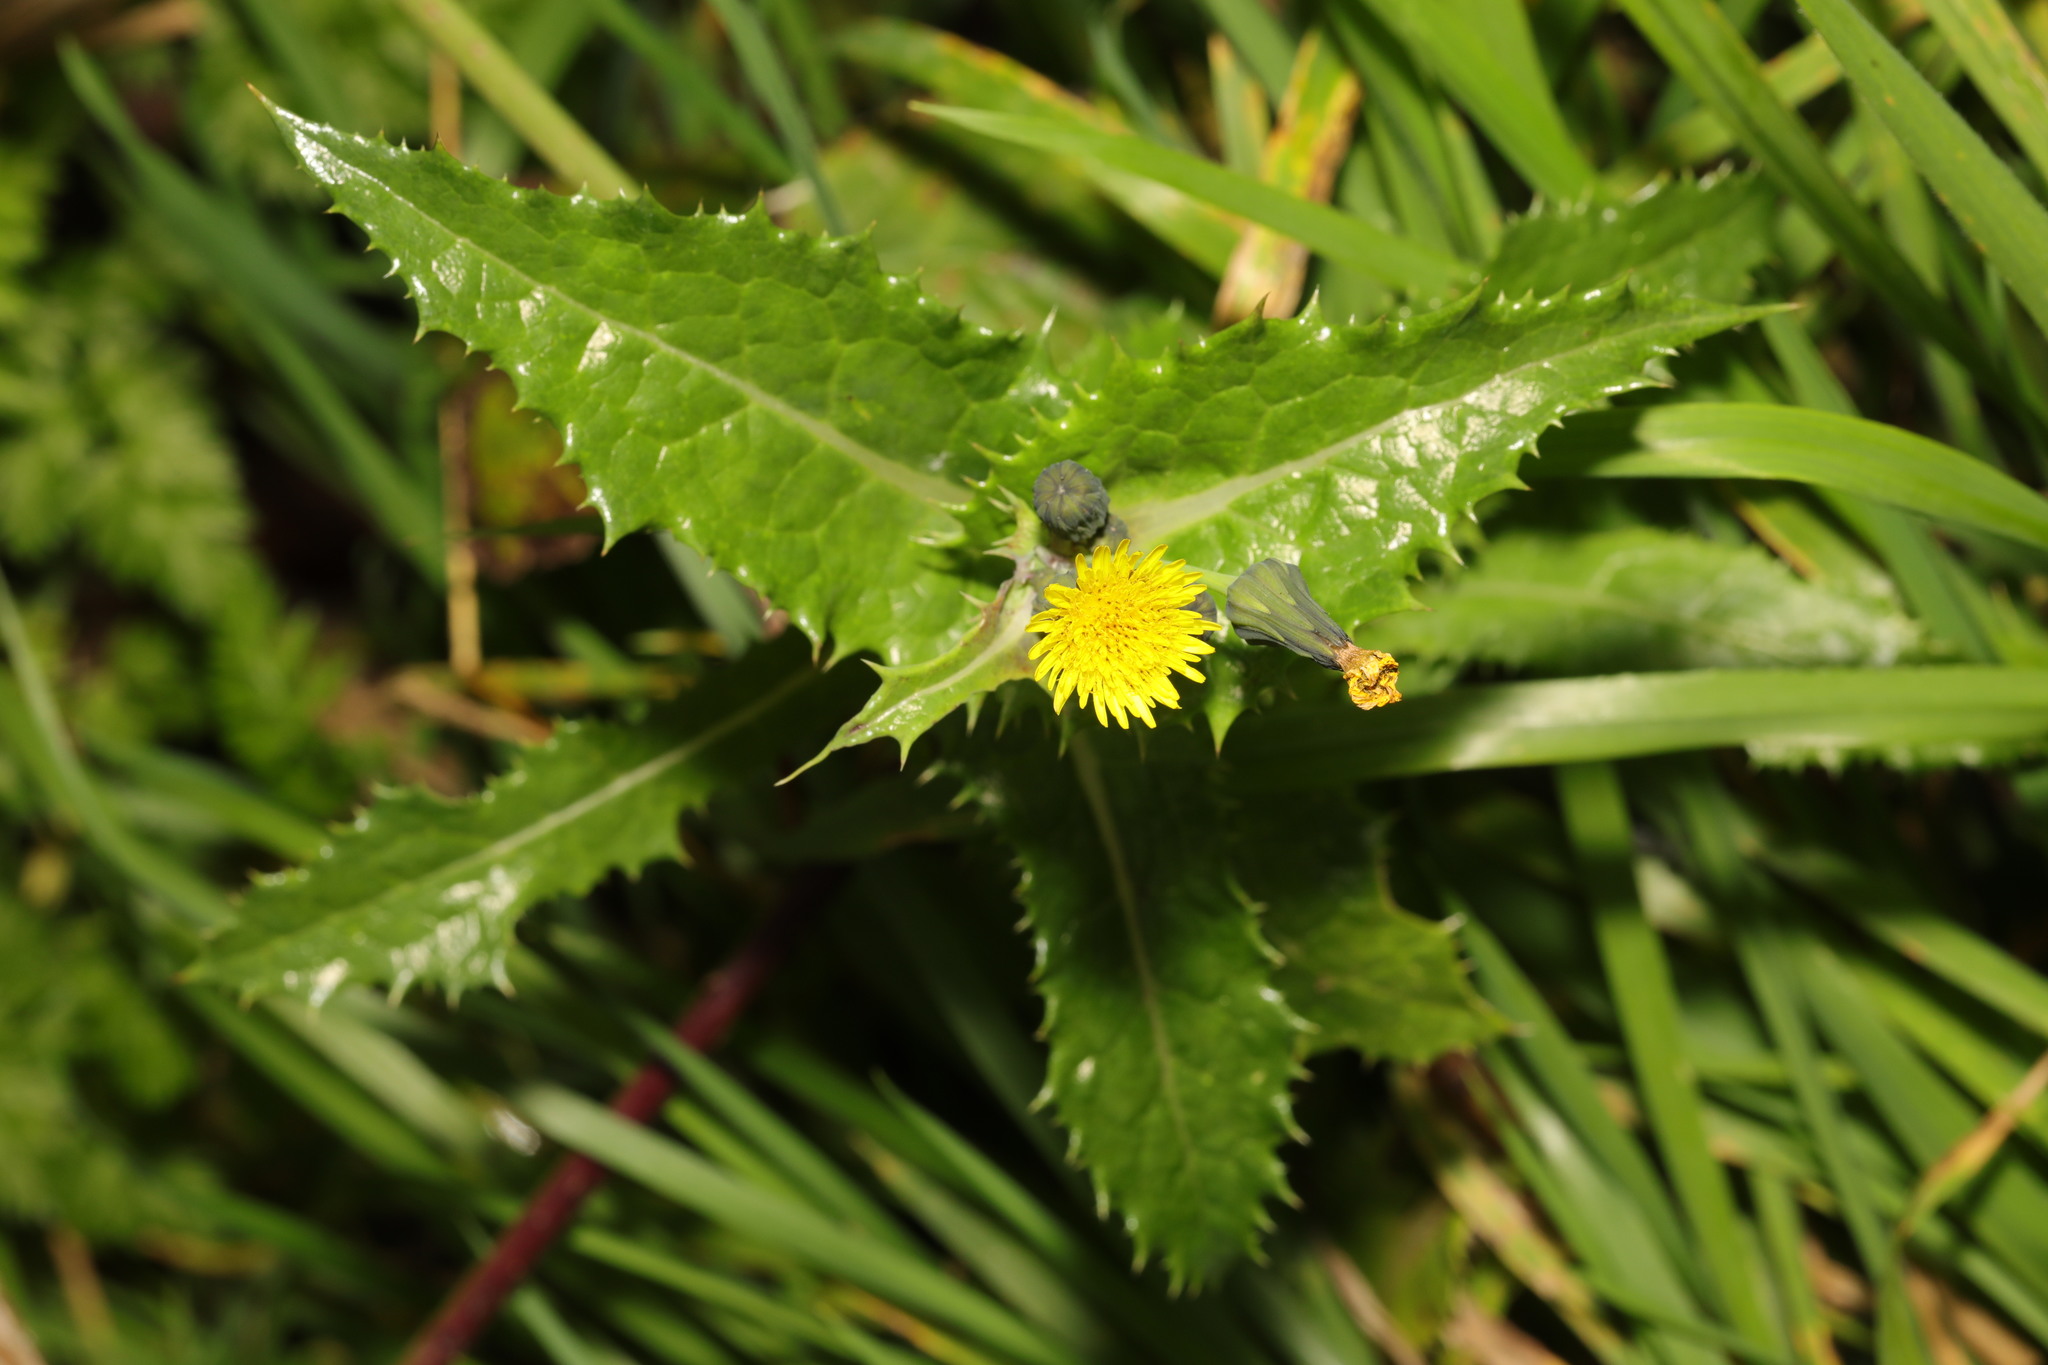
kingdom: Plantae
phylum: Tracheophyta
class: Magnoliopsida
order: Asterales
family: Asteraceae
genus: Sonchus
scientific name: Sonchus asper
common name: Prickly sow-thistle
